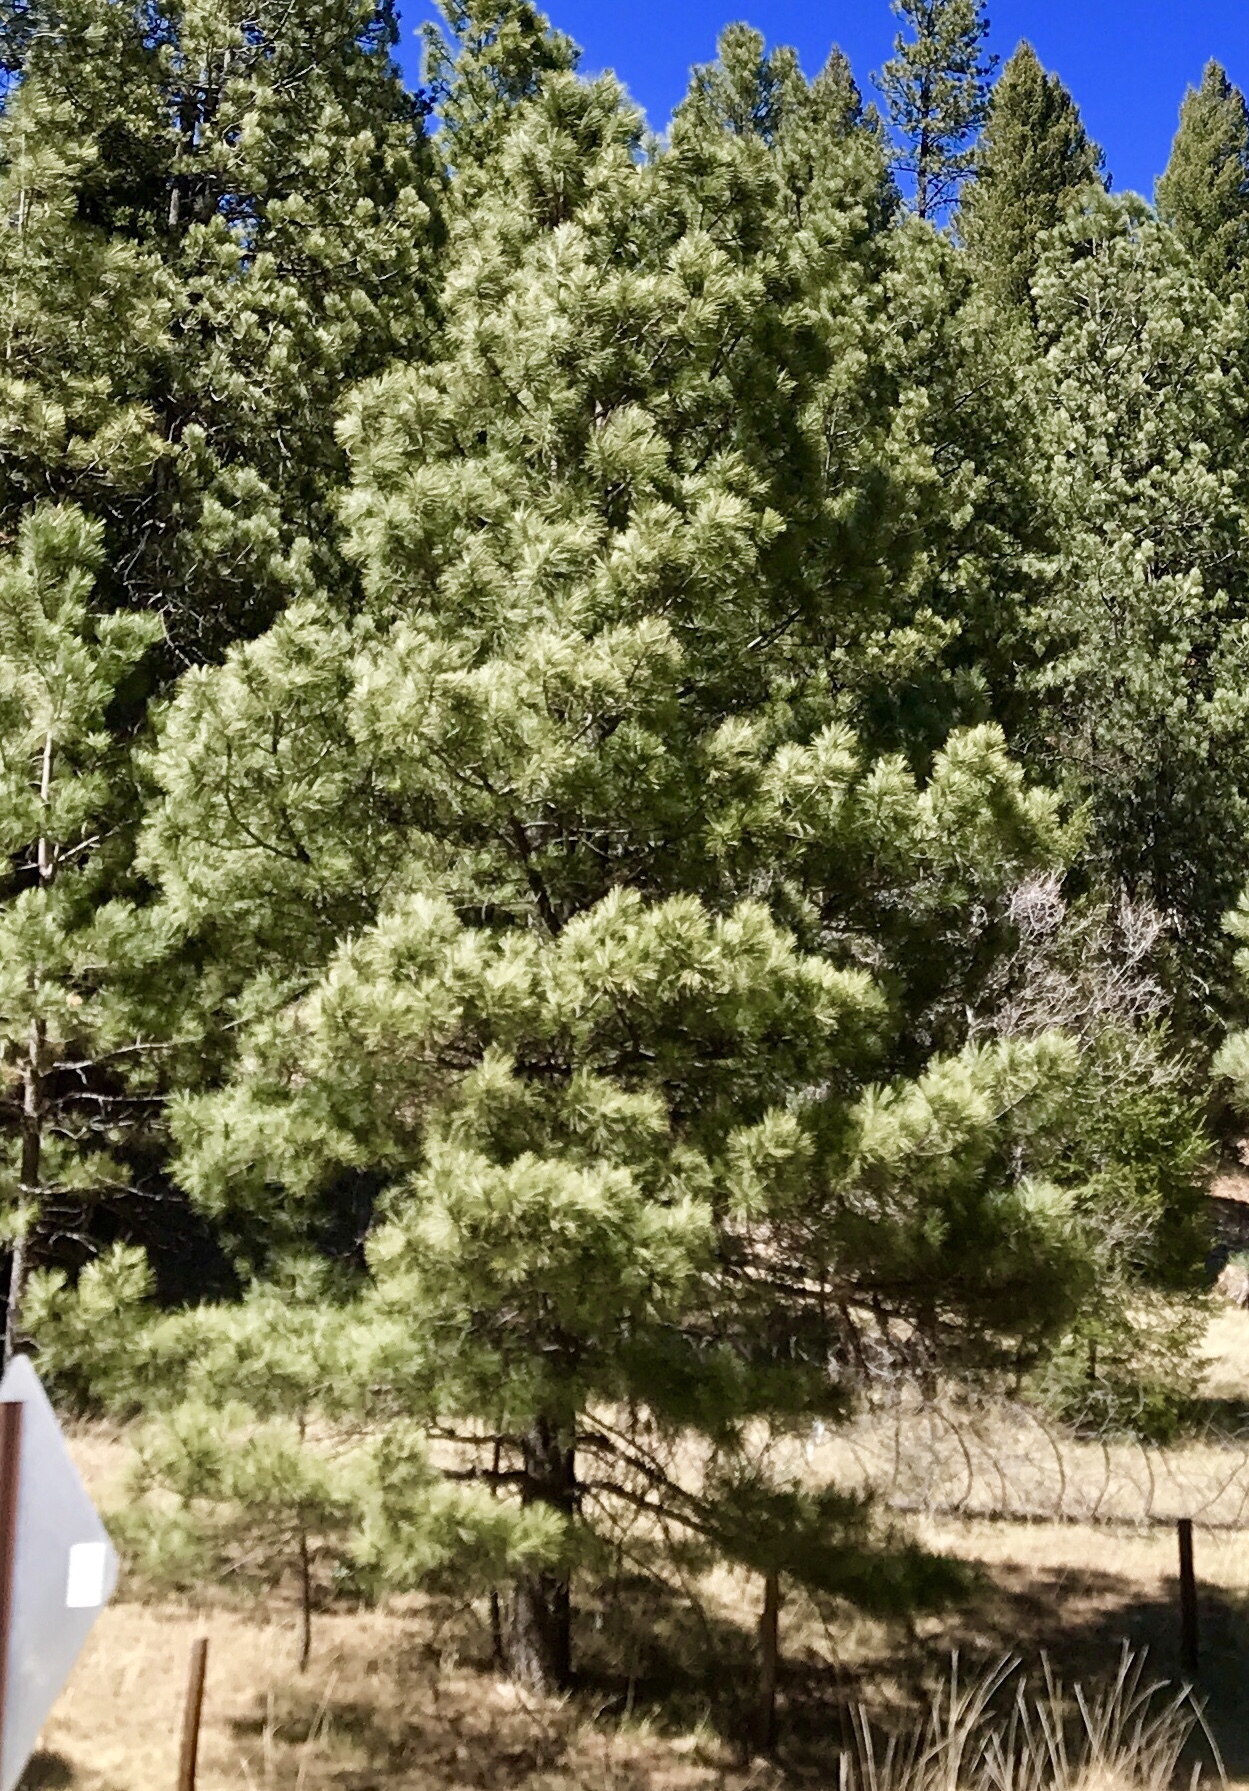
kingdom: Plantae
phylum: Tracheophyta
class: Pinopsida
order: Pinales
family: Pinaceae
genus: Pinus
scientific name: Pinus ponderosa
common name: Western yellow-pine
